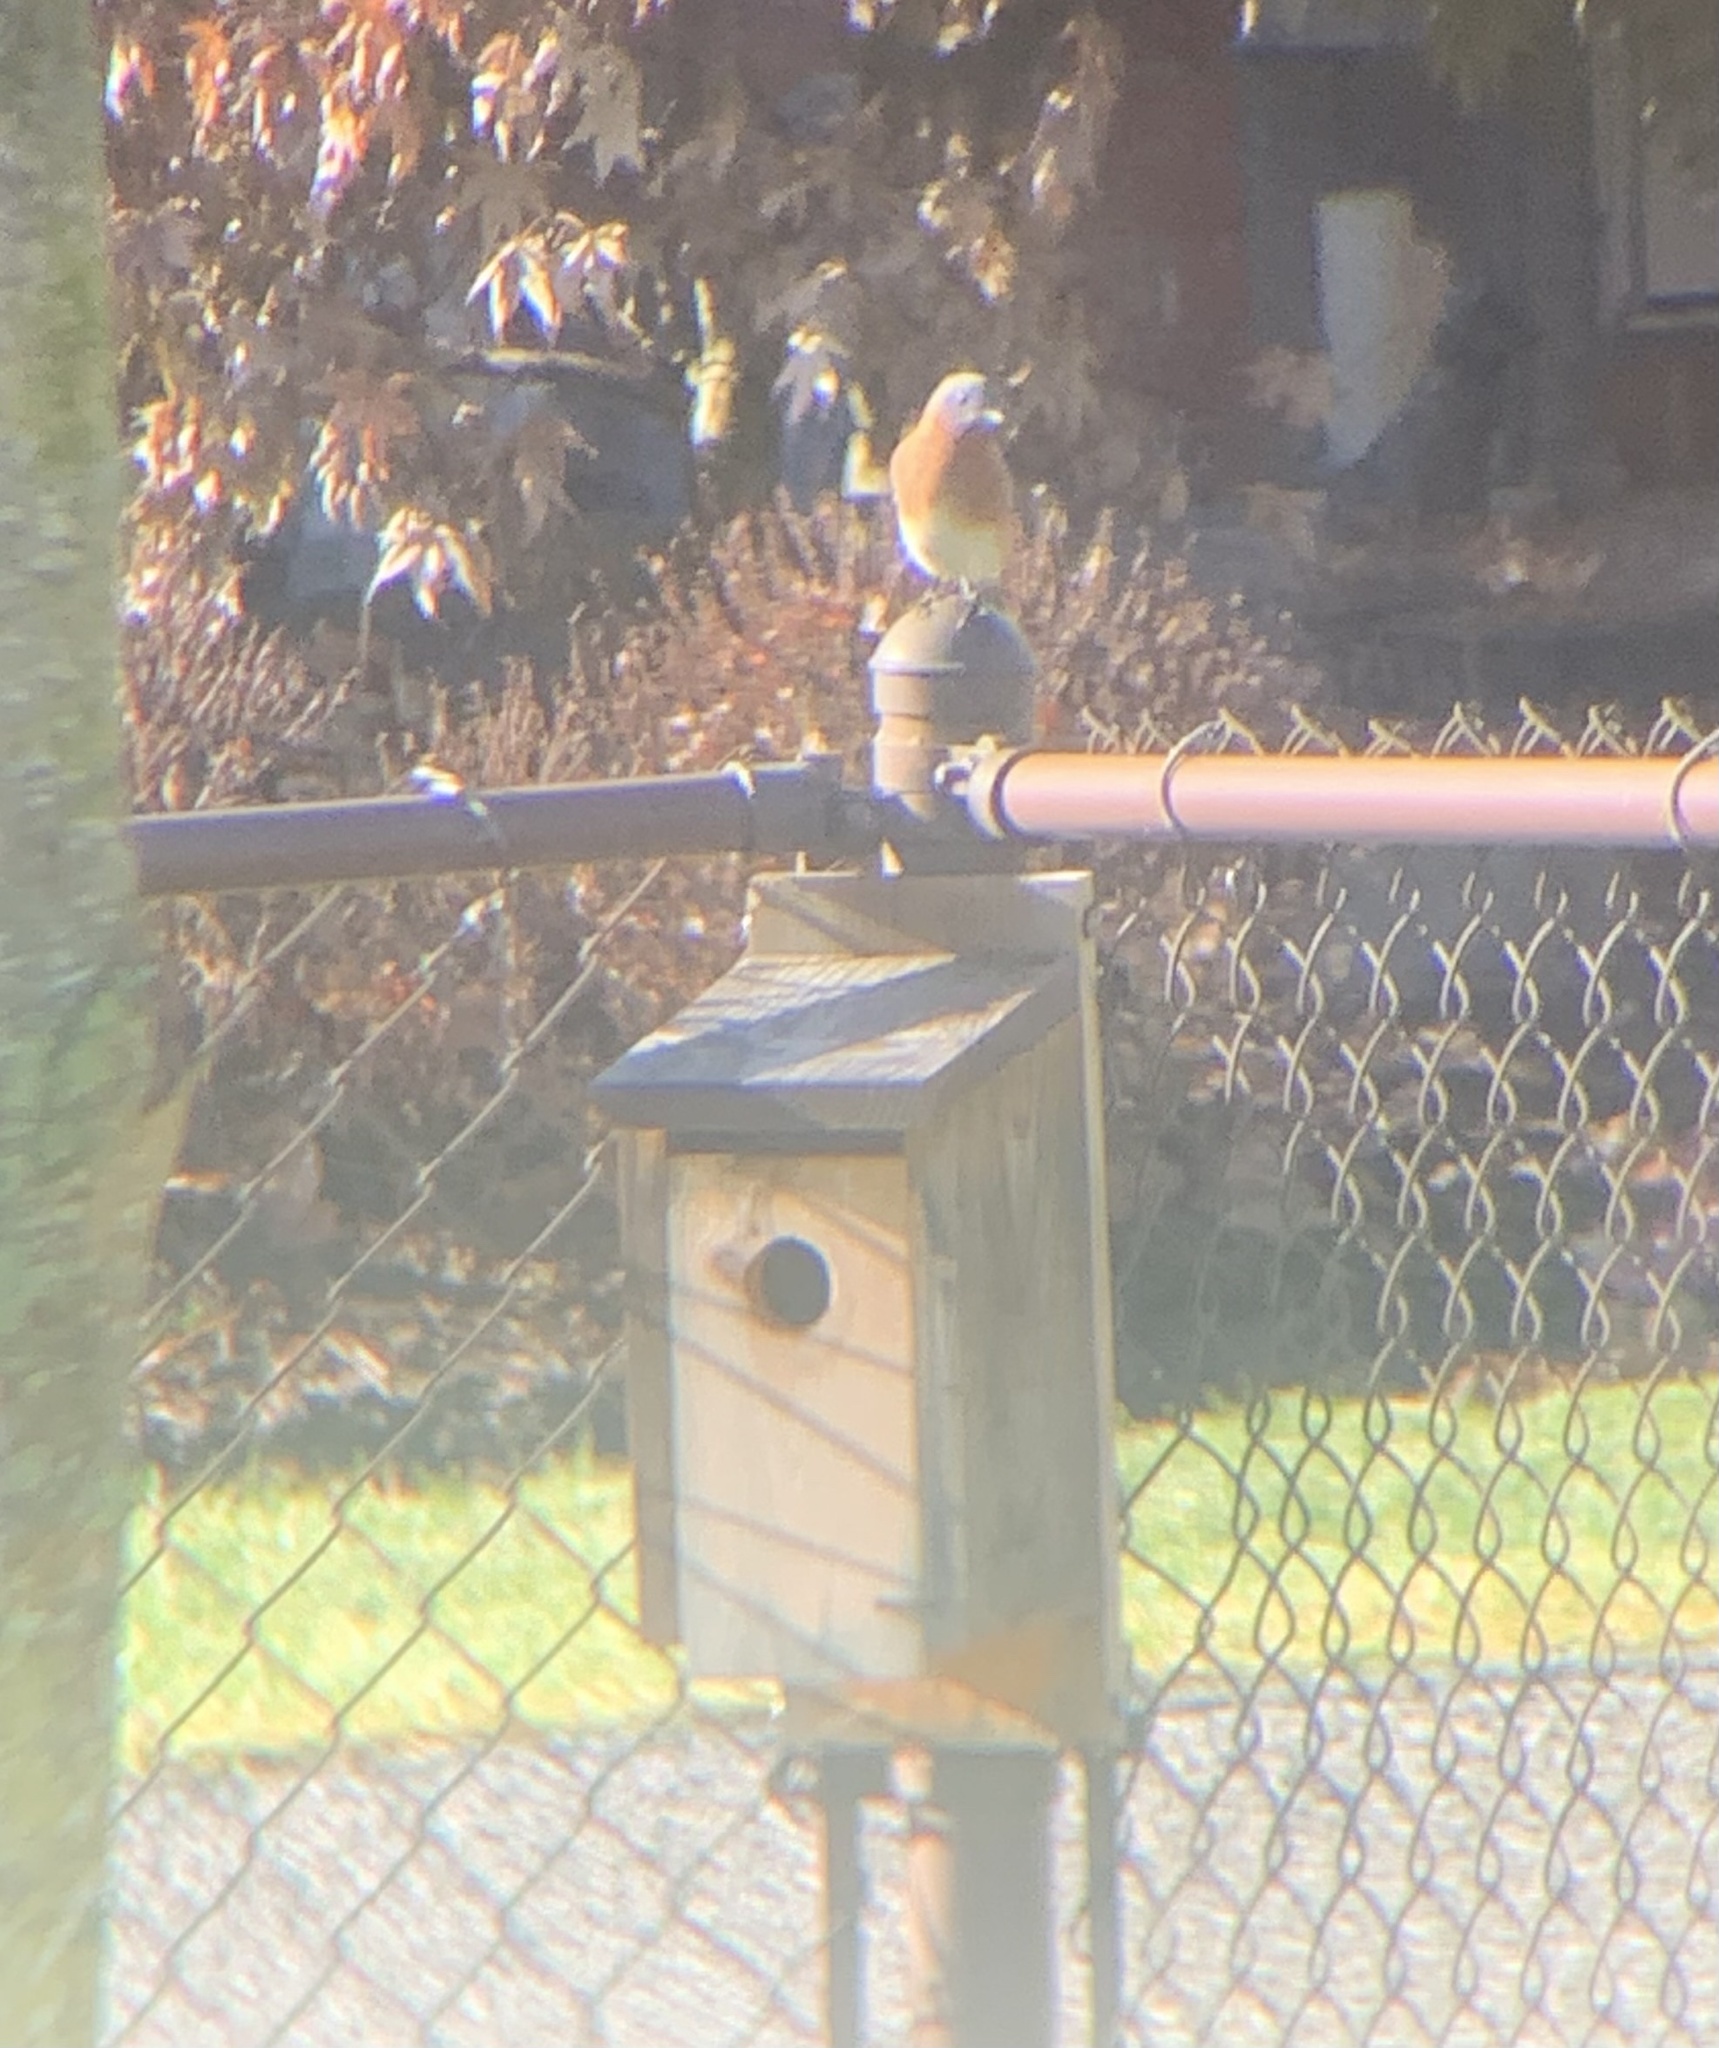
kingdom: Animalia
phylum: Chordata
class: Aves
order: Passeriformes
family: Turdidae
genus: Sialia
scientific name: Sialia sialis
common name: Eastern bluebird
